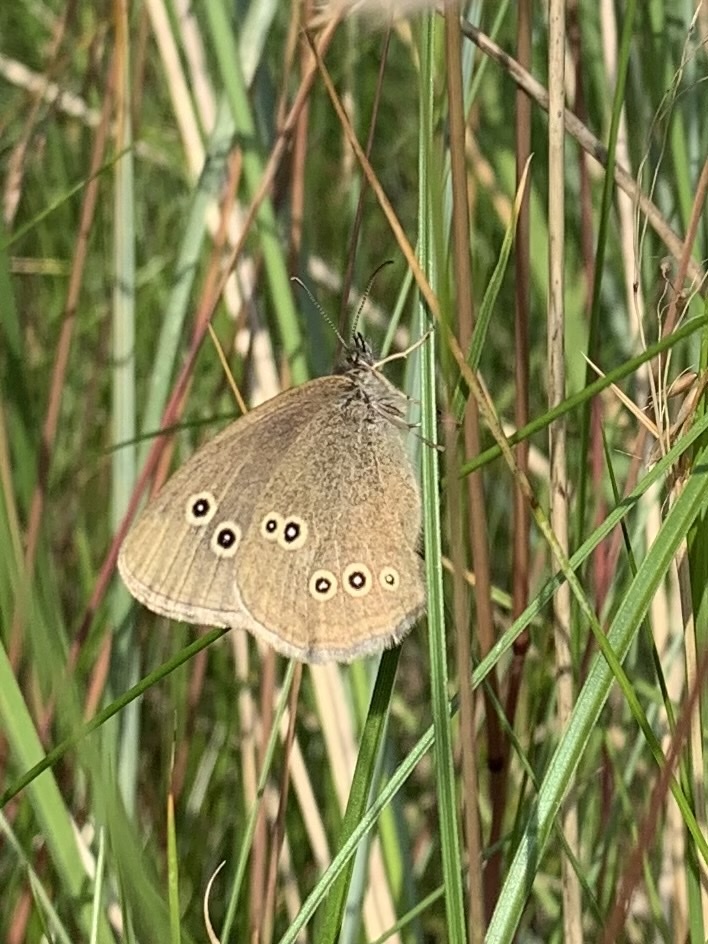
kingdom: Animalia
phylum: Arthropoda
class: Insecta
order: Lepidoptera
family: Nymphalidae
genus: Aphantopus
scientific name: Aphantopus hyperantus
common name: Ringlet
